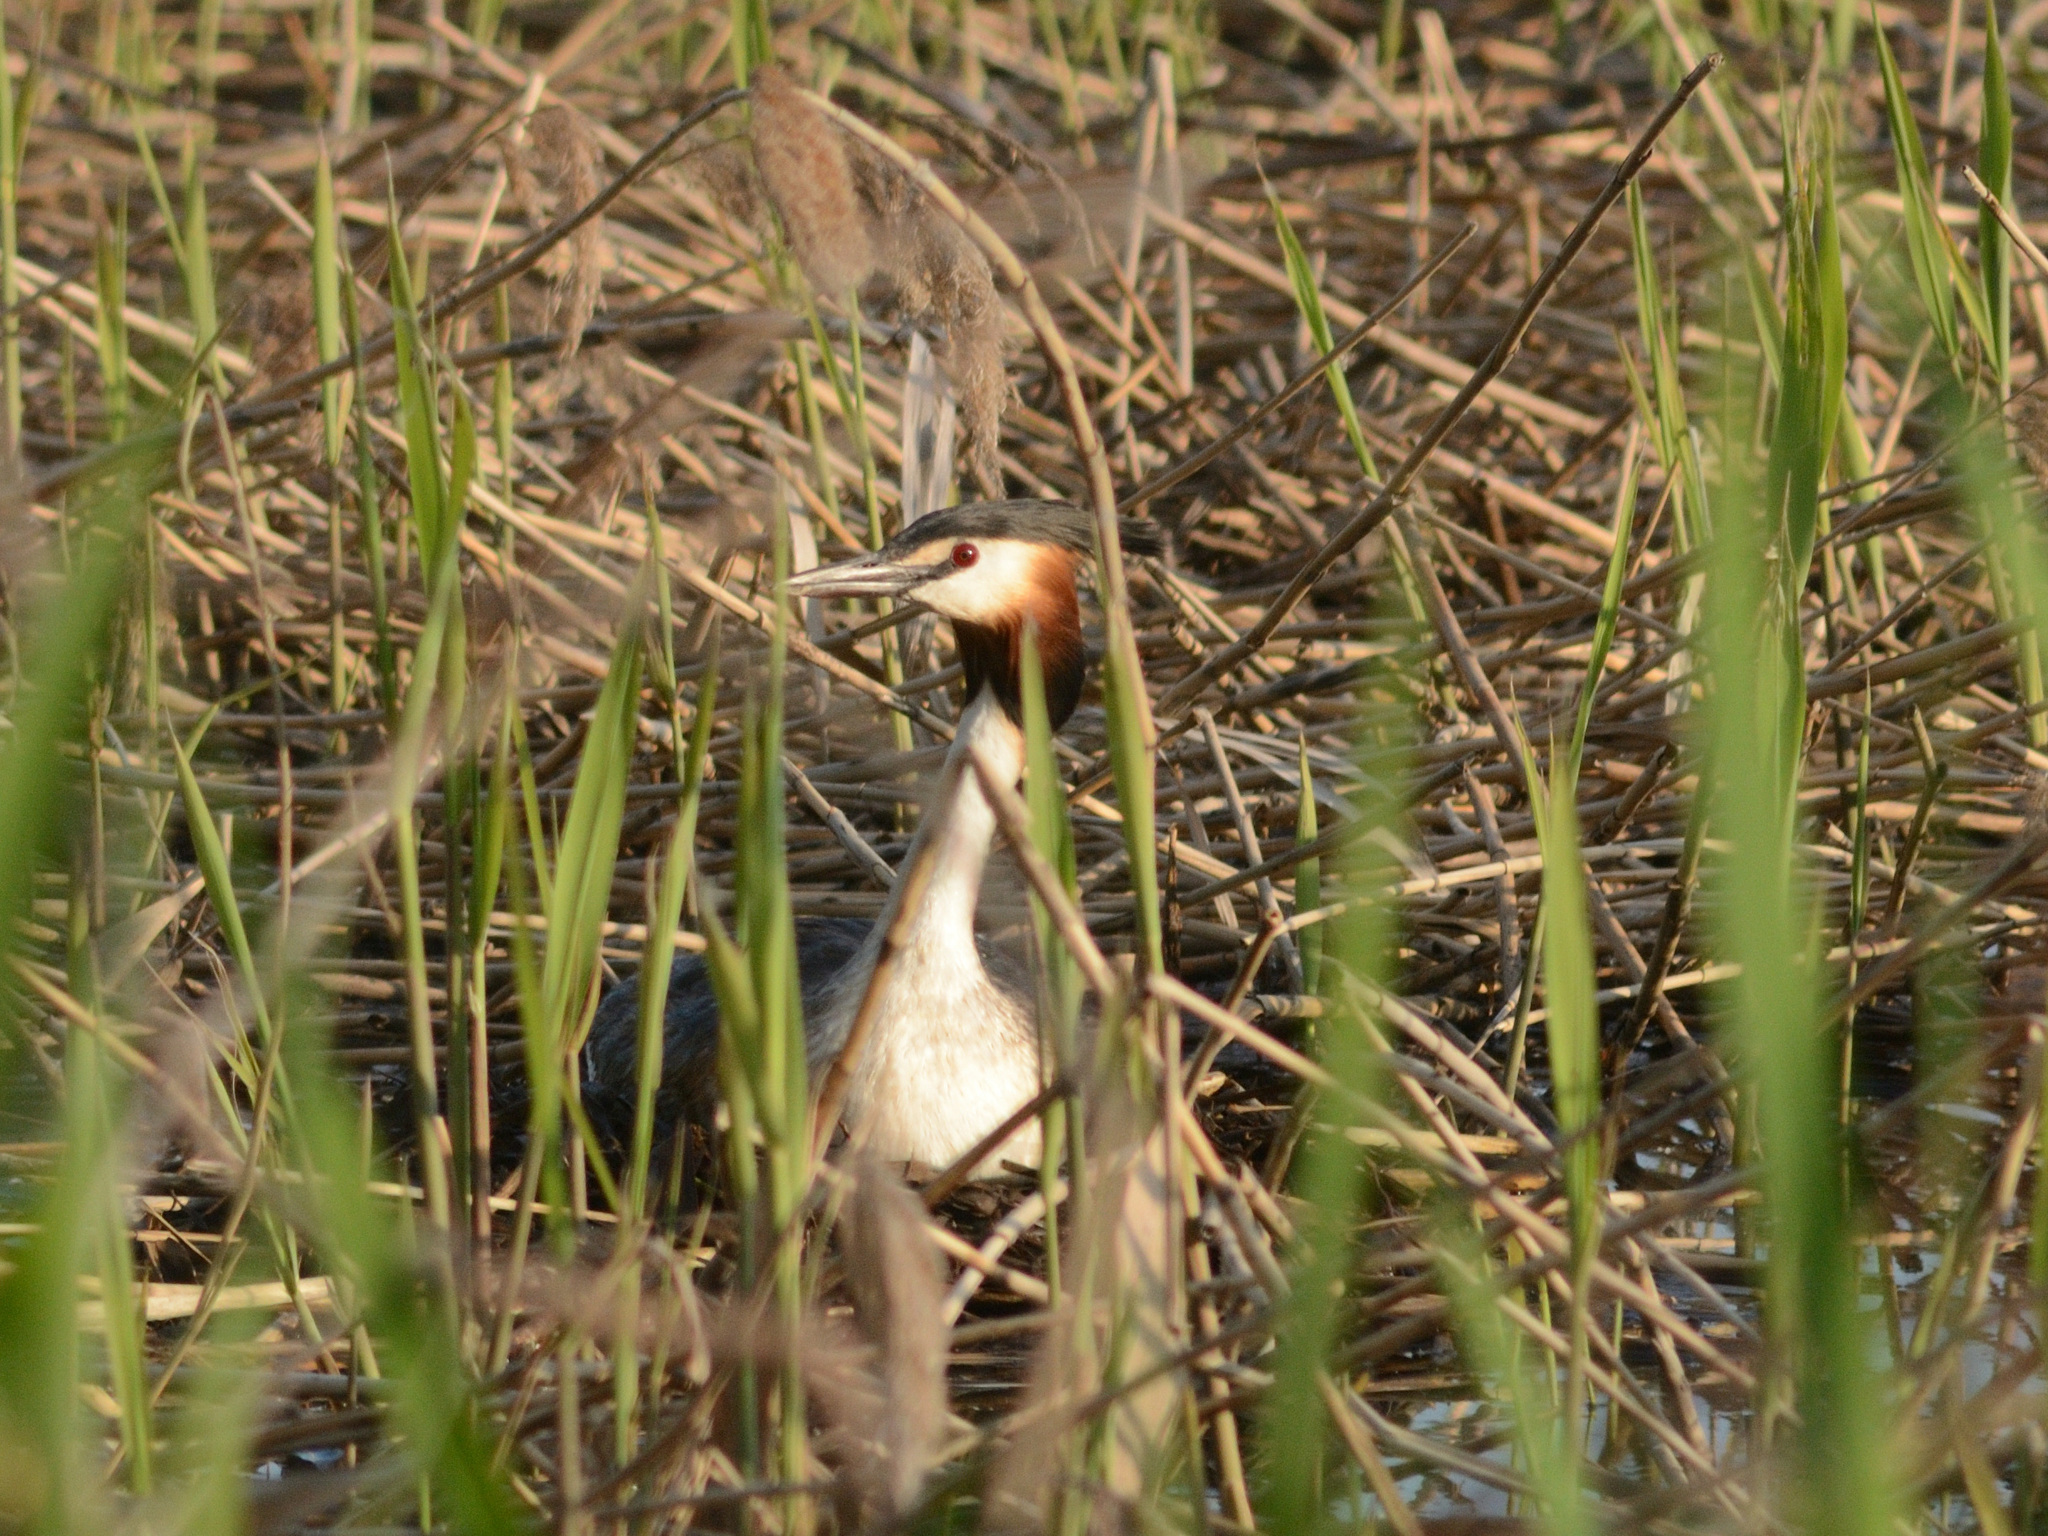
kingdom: Animalia
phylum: Chordata
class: Aves
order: Podicipediformes
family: Podicipedidae
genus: Podiceps
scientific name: Podiceps cristatus
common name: Great crested grebe
